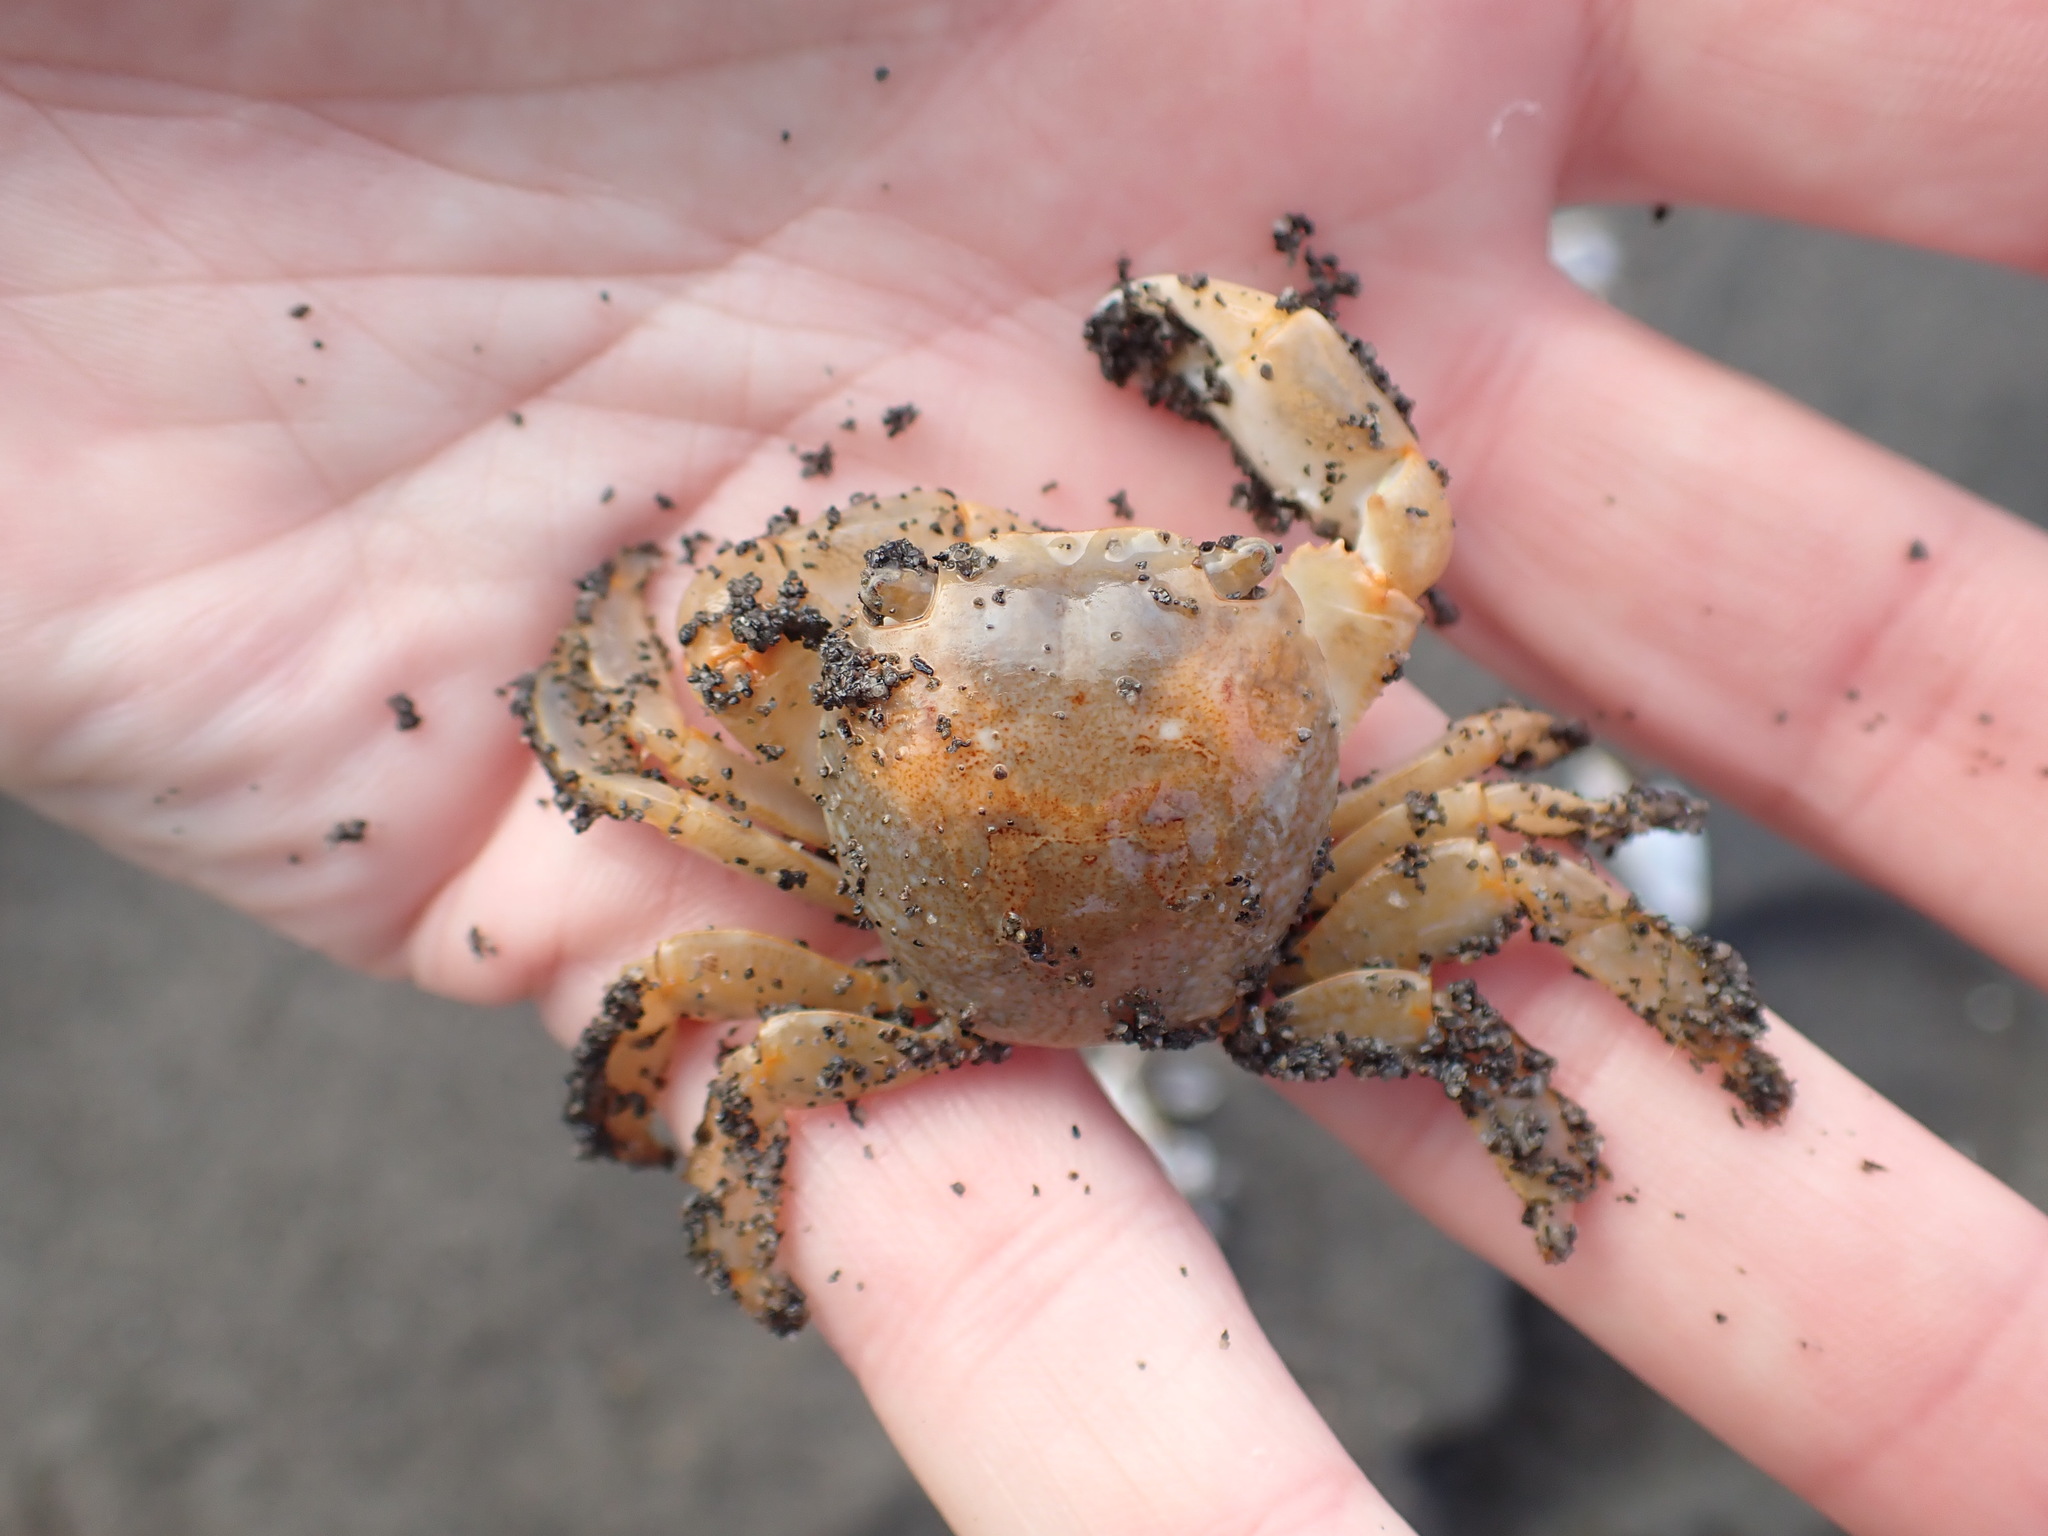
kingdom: Animalia
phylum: Arthropoda
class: Malacostraca
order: Decapoda
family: Grapsidae
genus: Planes
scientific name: Planes minutus
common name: Gulf weed crab
